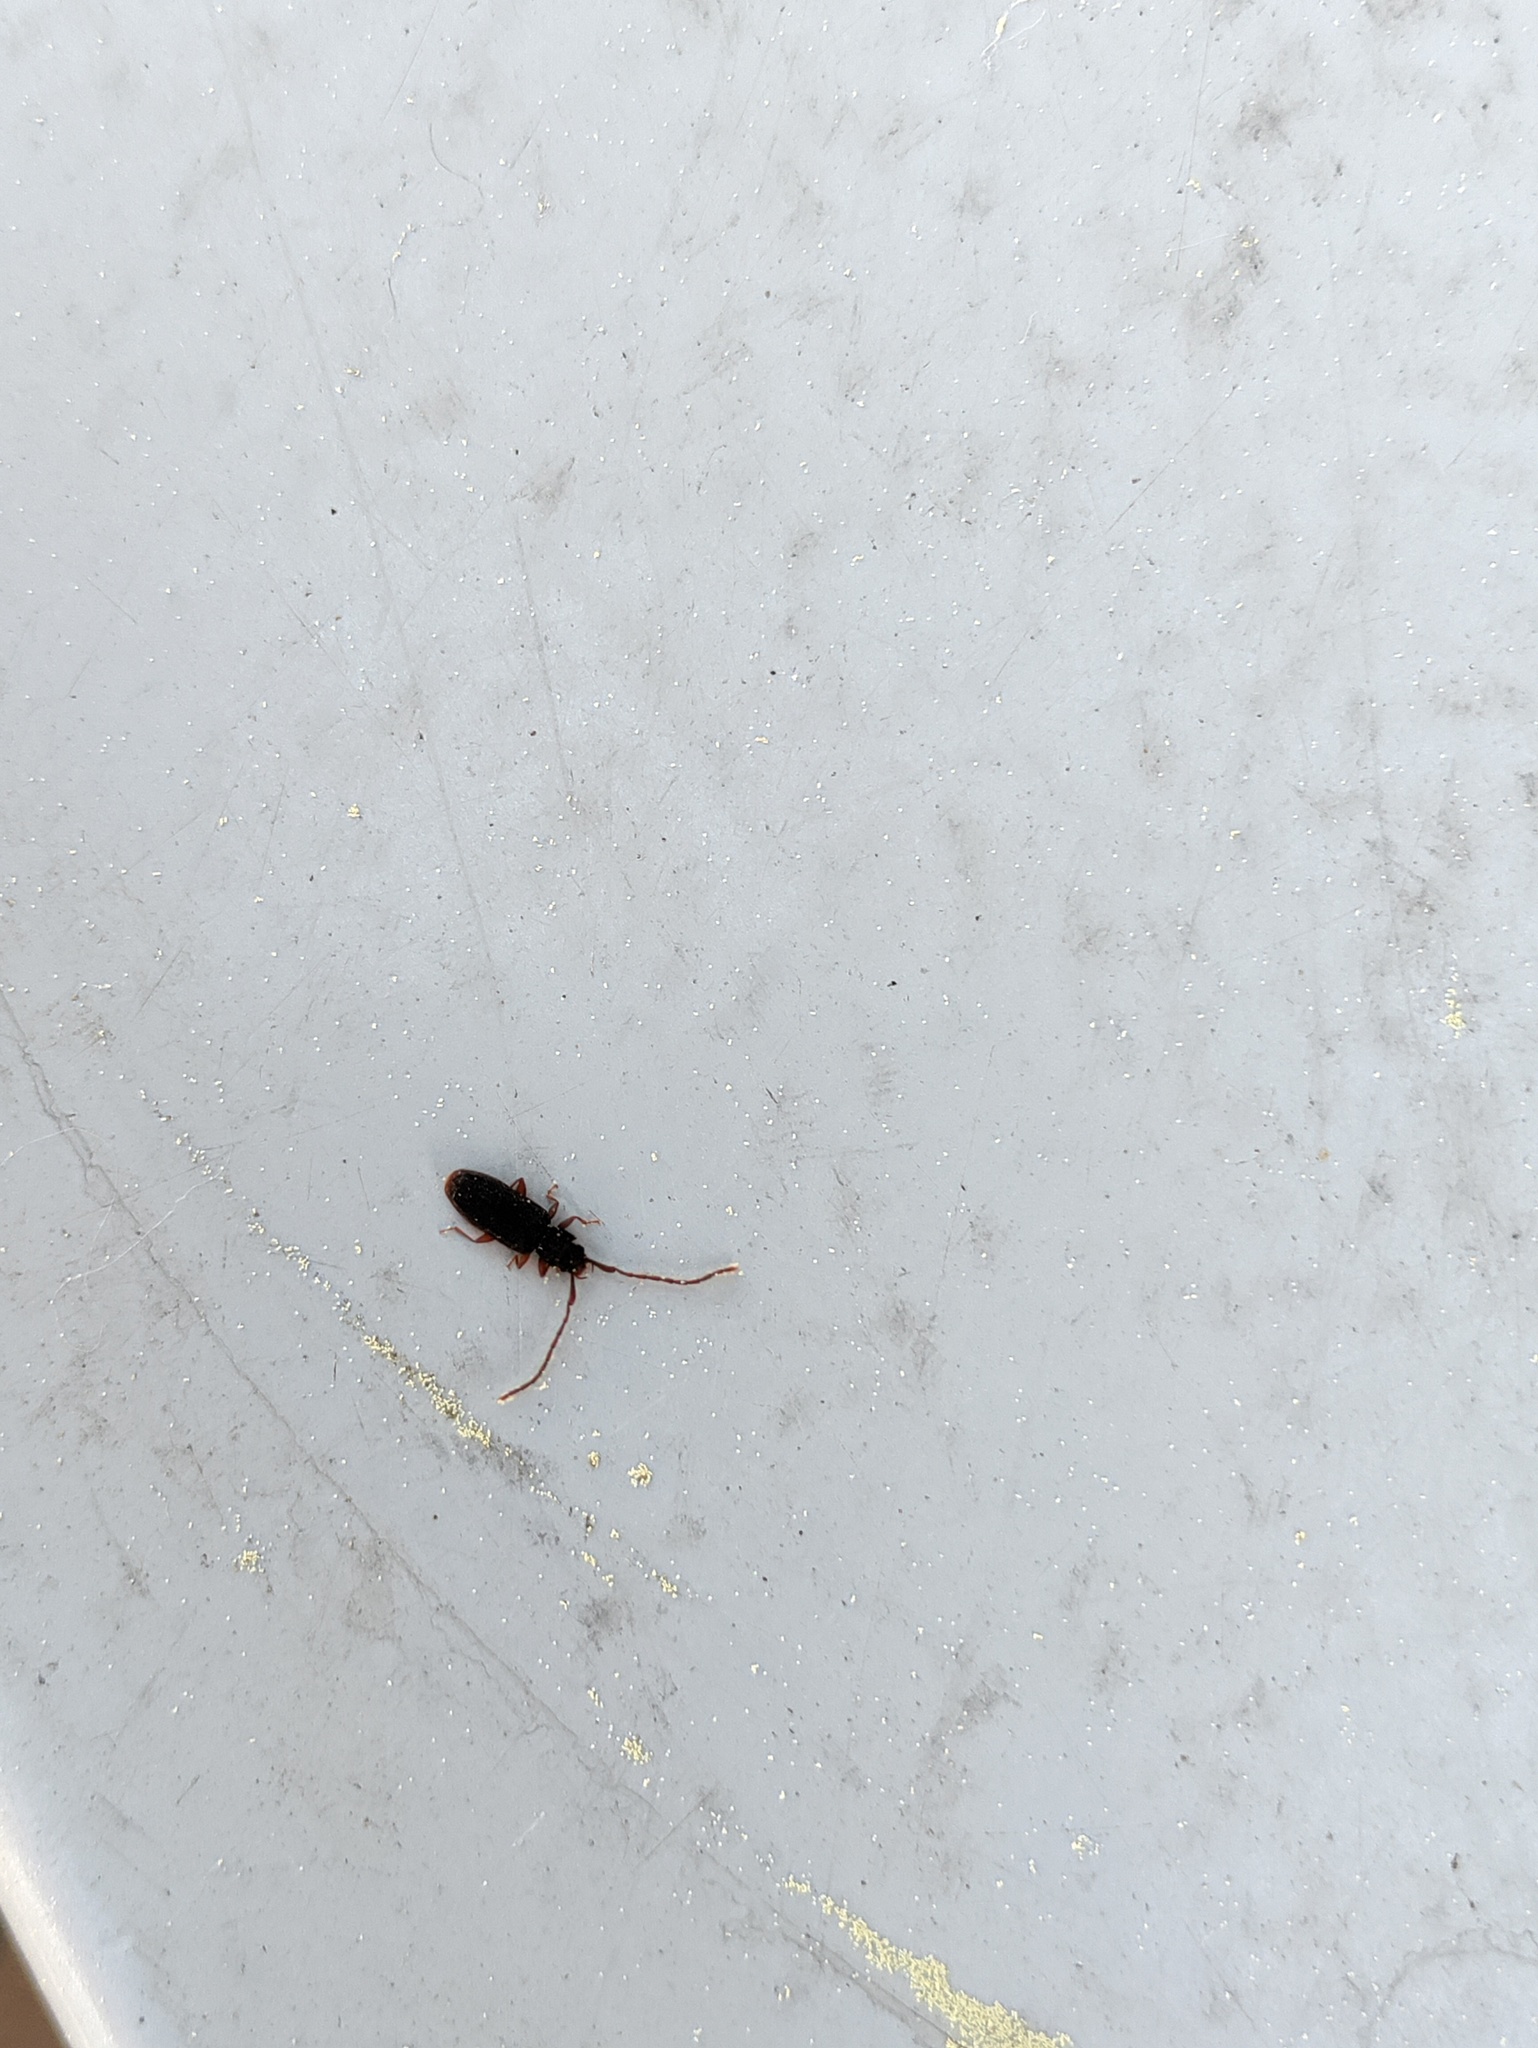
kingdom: Animalia
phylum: Arthropoda
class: Insecta
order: Coleoptera
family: Silvanidae
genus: Uleiota
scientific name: Uleiota planatus
